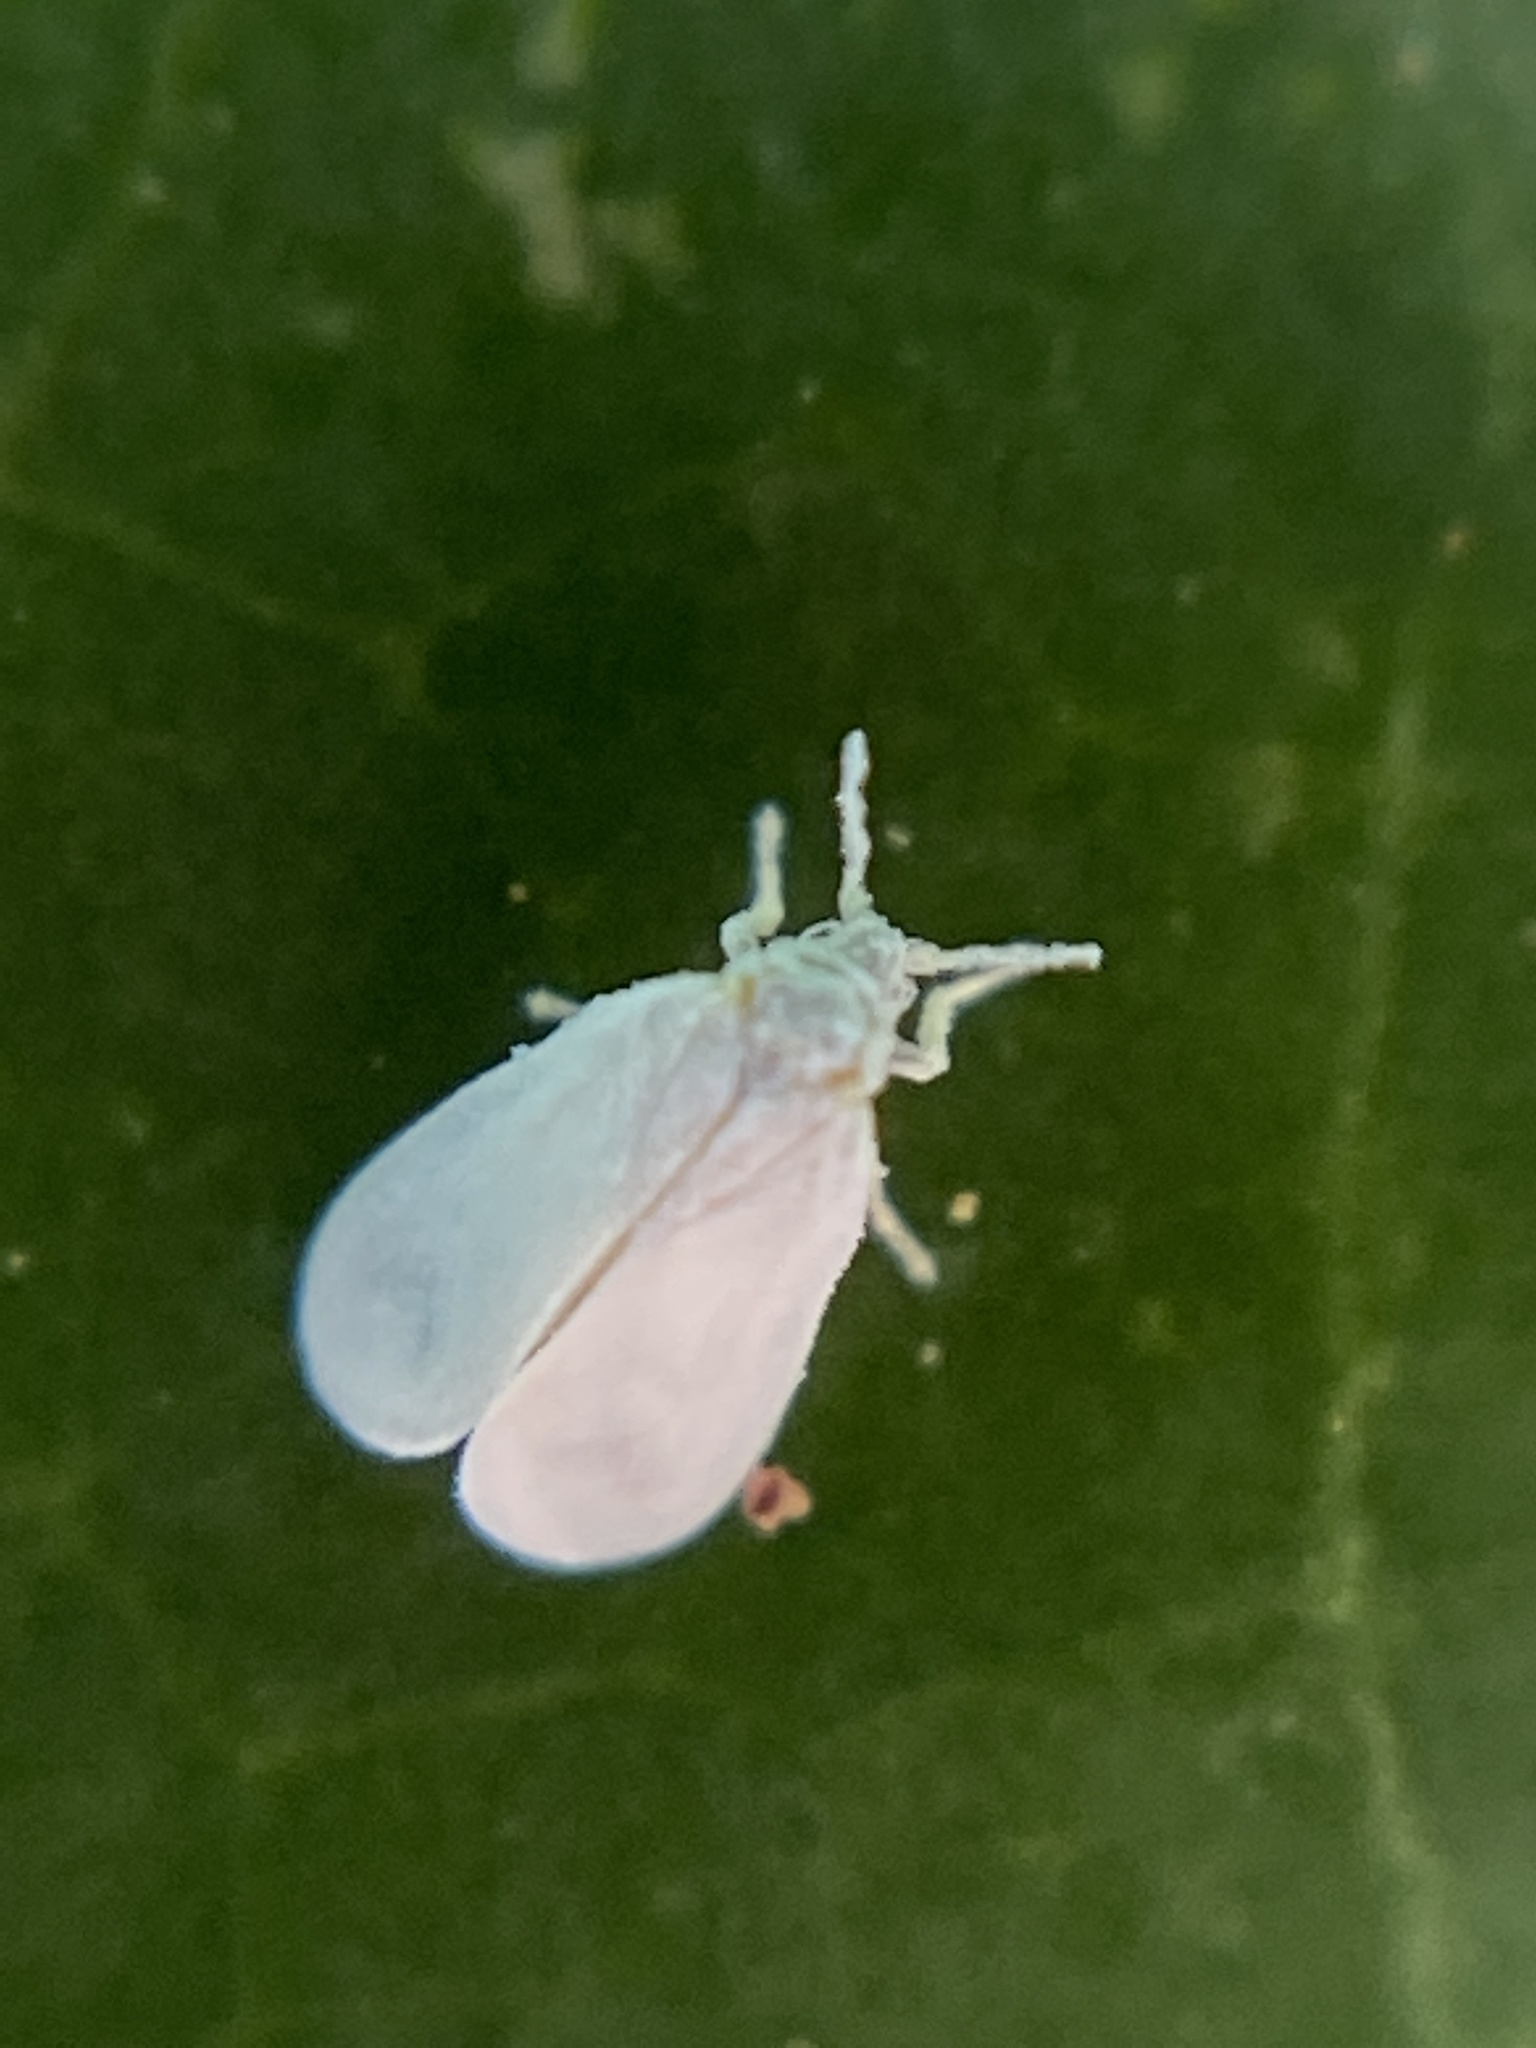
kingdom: Animalia
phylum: Arthropoda
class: Insecta
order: Hemiptera
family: Aleyrodidae
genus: Trialeurodes
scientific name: Trialeurodes vaporariorum
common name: Greenhouse white fly
